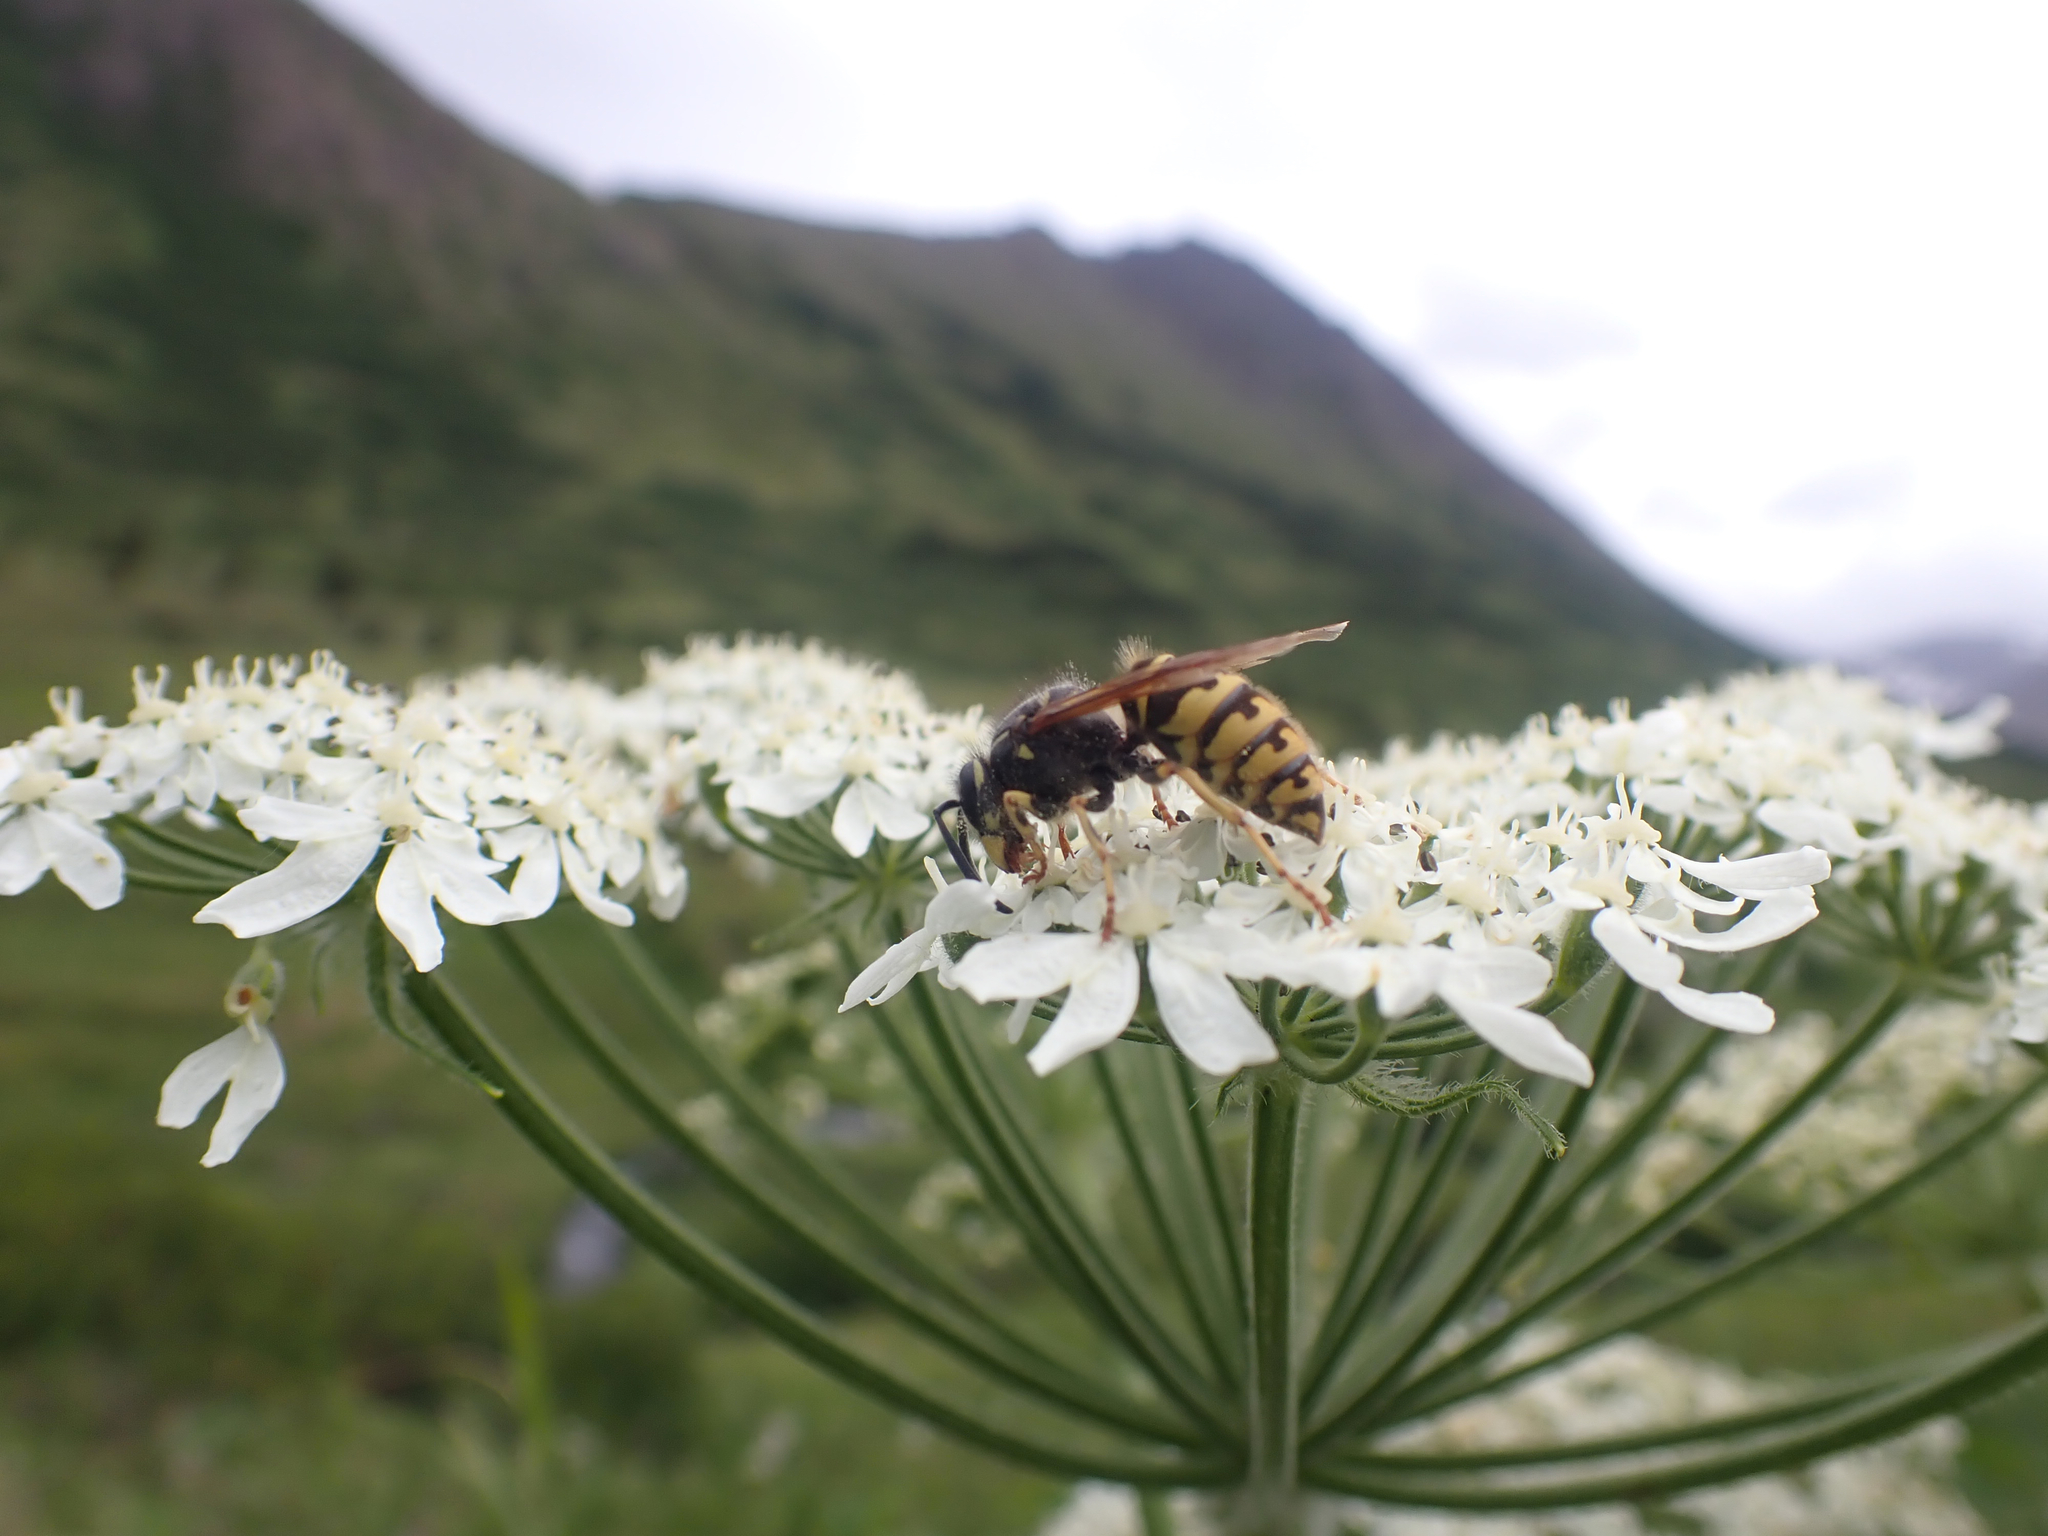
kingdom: Animalia
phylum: Arthropoda
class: Insecta
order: Hymenoptera
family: Vespidae
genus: Vespula
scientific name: Vespula alascensis
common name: Alaska yellowjacket
